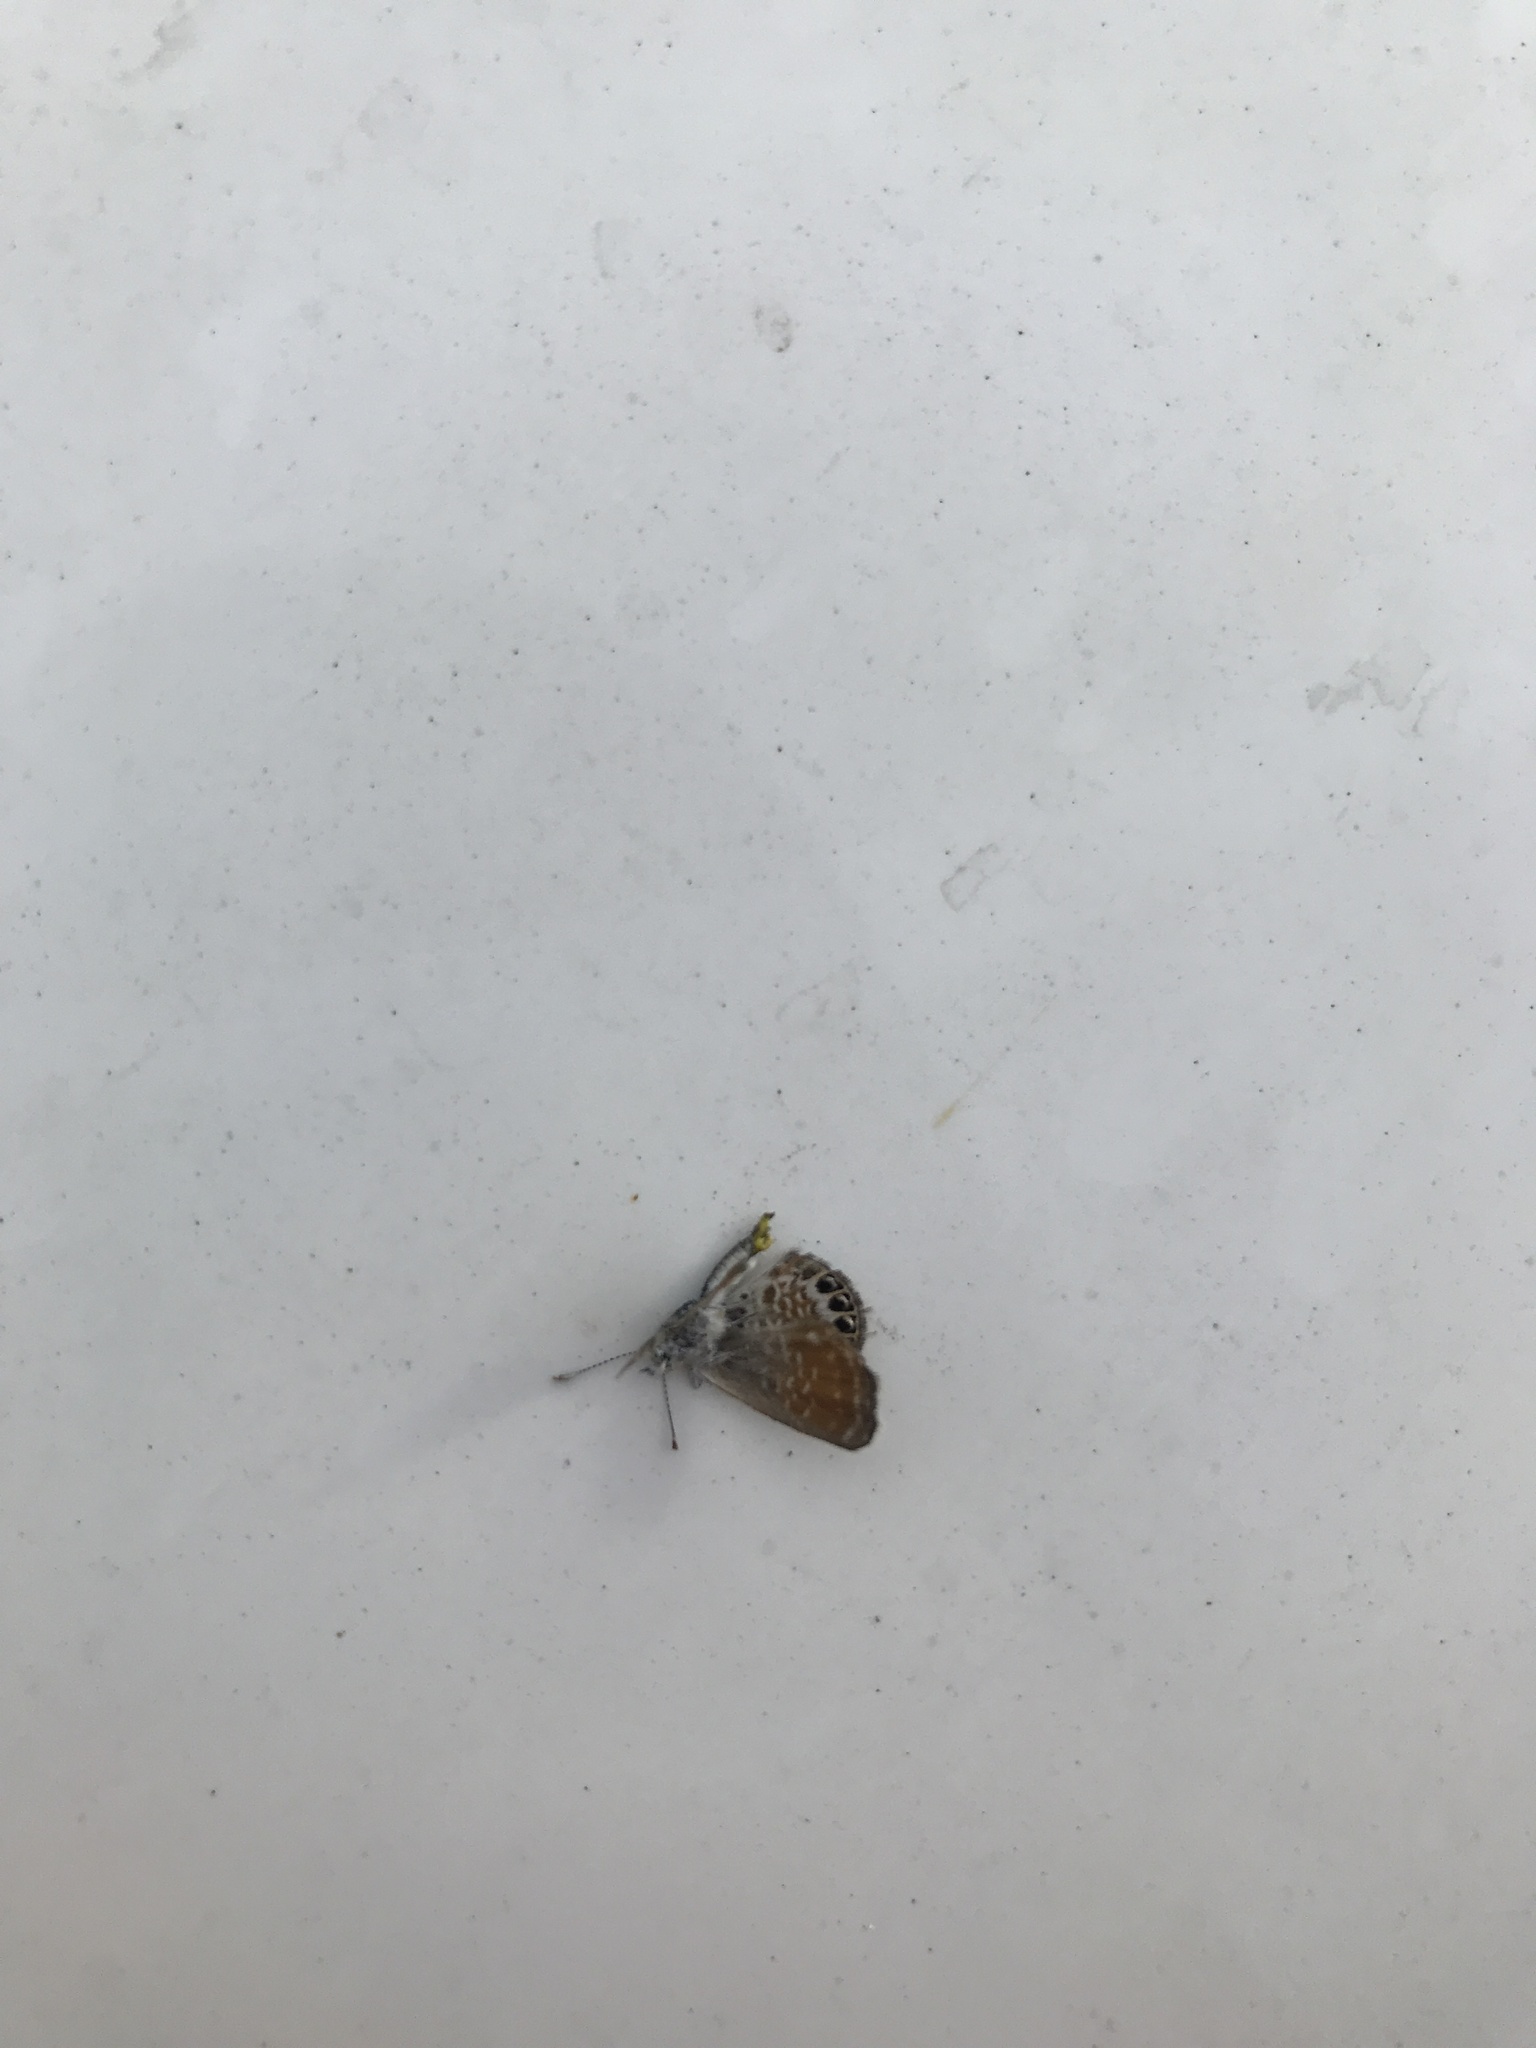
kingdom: Animalia
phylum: Arthropoda
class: Insecta
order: Lepidoptera
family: Lycaenidae
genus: Brephidium
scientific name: Brephidium exilis
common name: Pygmy blue
